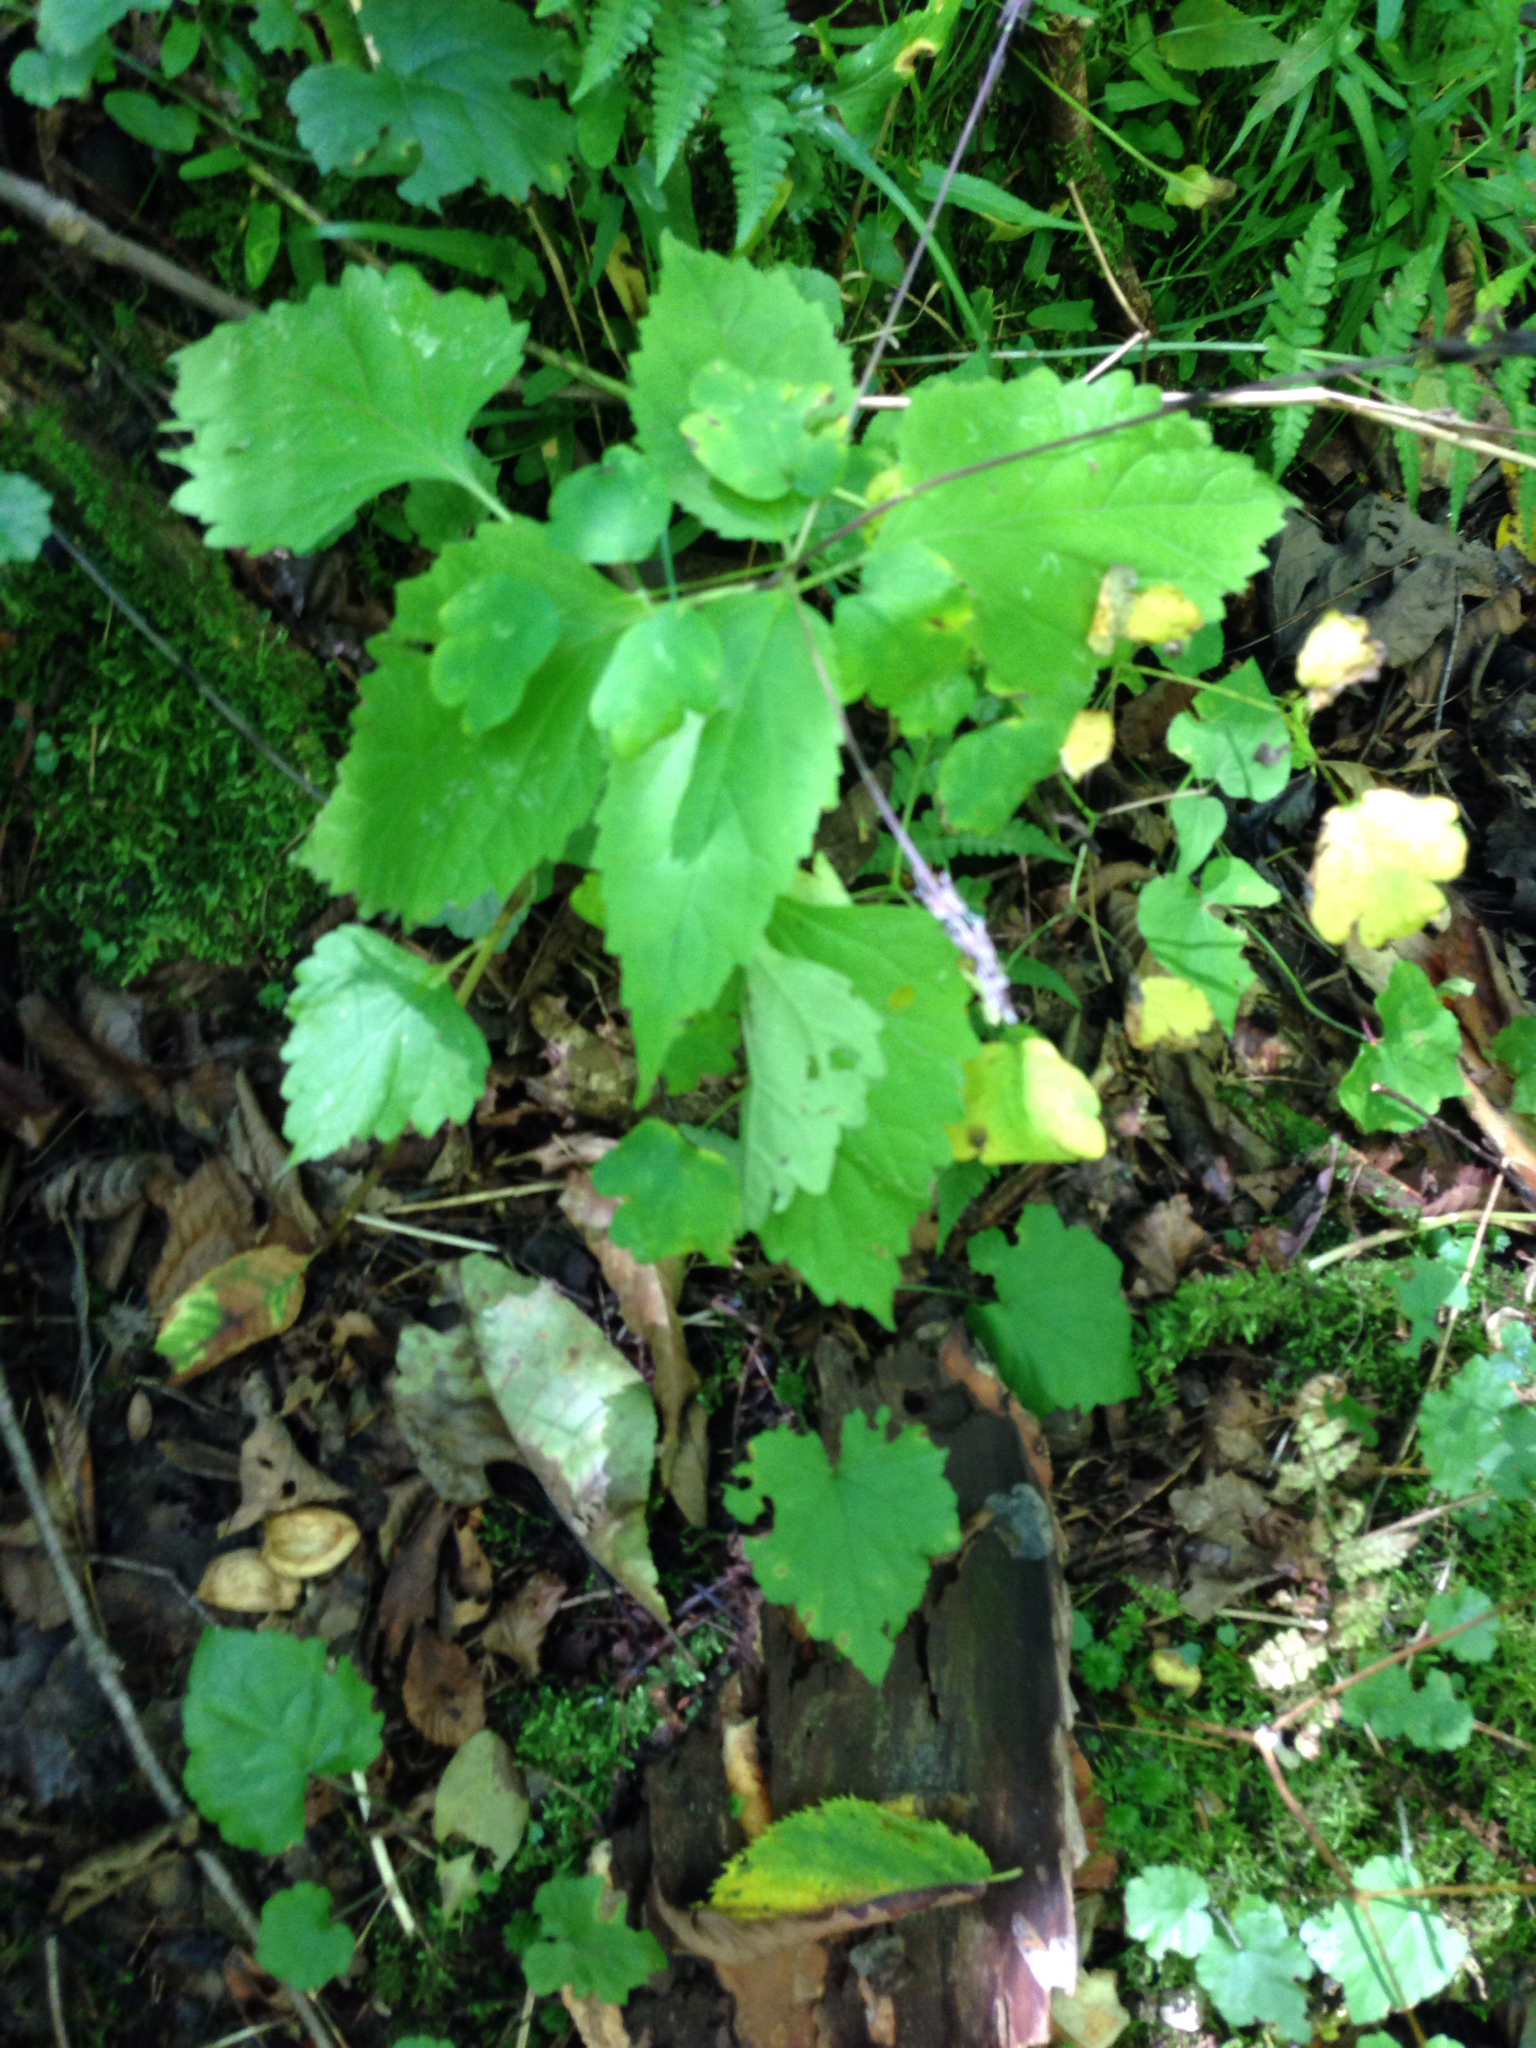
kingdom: Plantae
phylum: Tracheophyta
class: Magnoliopsida
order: Lamiales
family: Phrymaceae
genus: Phryma
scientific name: Phryma leptostachya
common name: American lopseed
